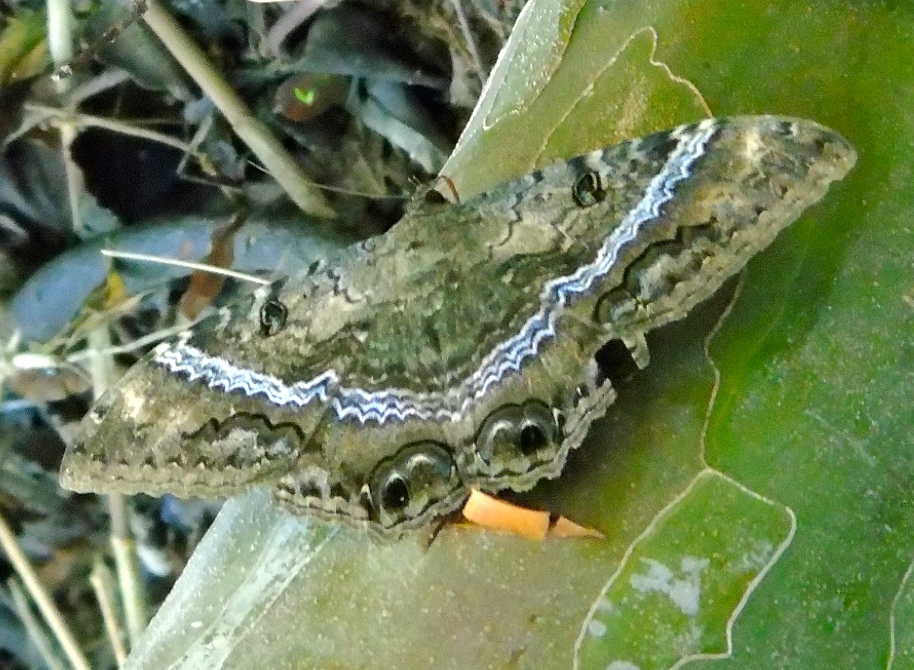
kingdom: Animalia
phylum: Arthropoda
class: Insecta
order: Lepidoptera
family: Erebidae
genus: Ascalapha
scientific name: Ascalapha odorata
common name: Black witch
